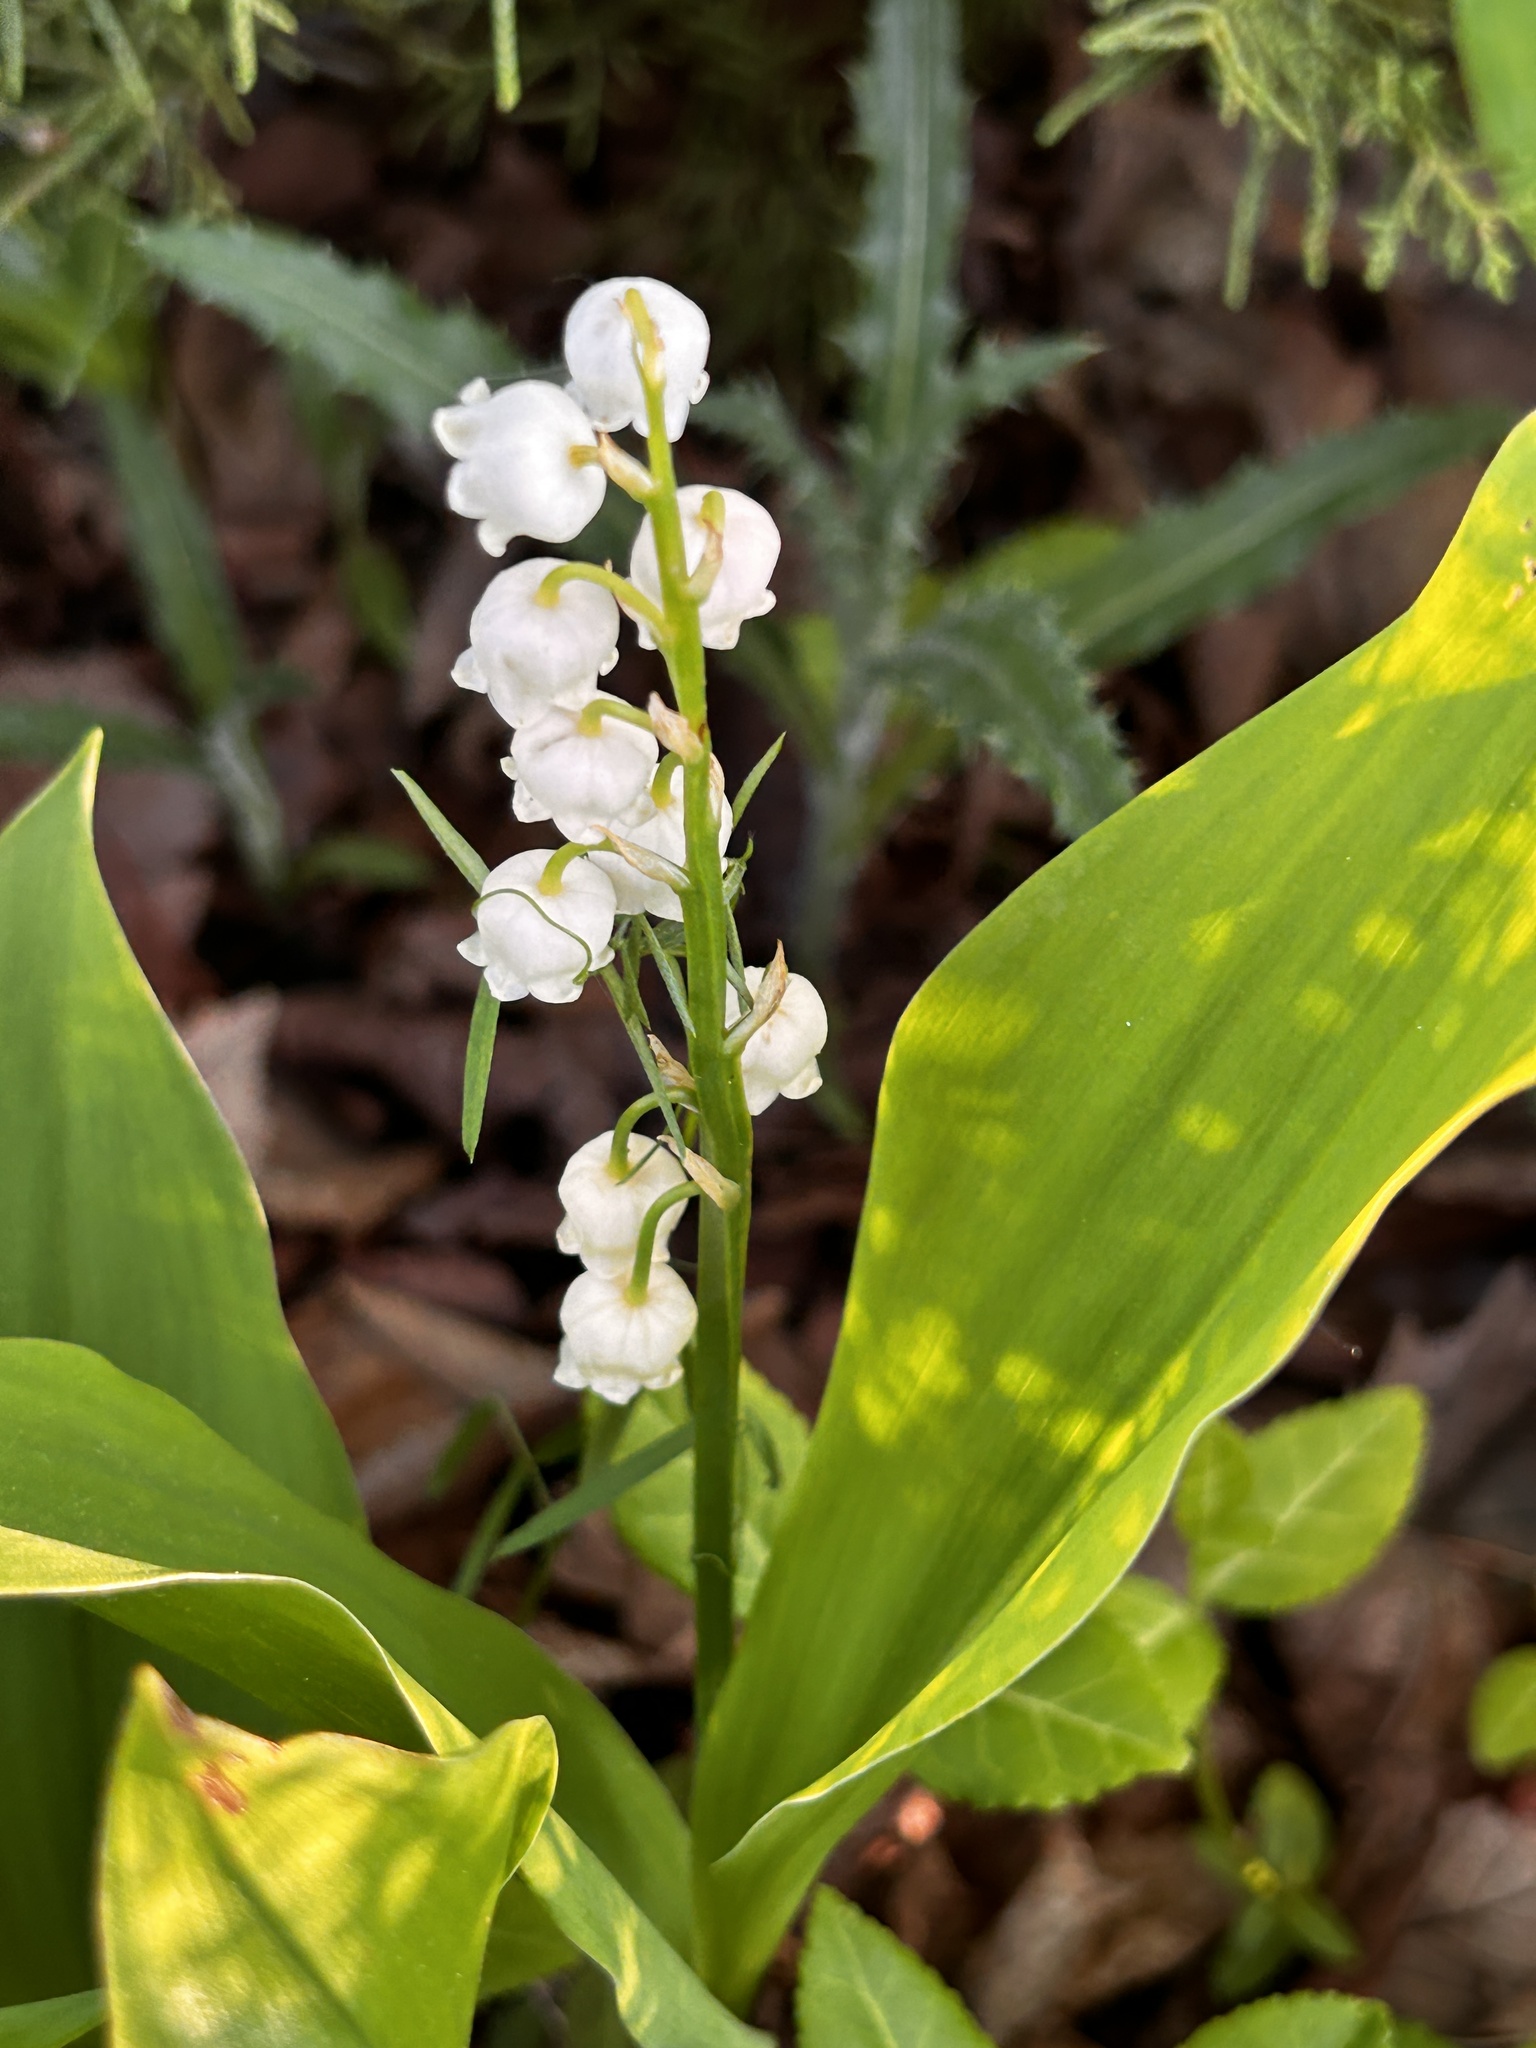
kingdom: Plantae
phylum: Tracheophyta
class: Liliopsida
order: Asparagales
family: Asparagaceae
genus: Convallaria
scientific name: Convallaria majalis
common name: Lily-of-the-valley
